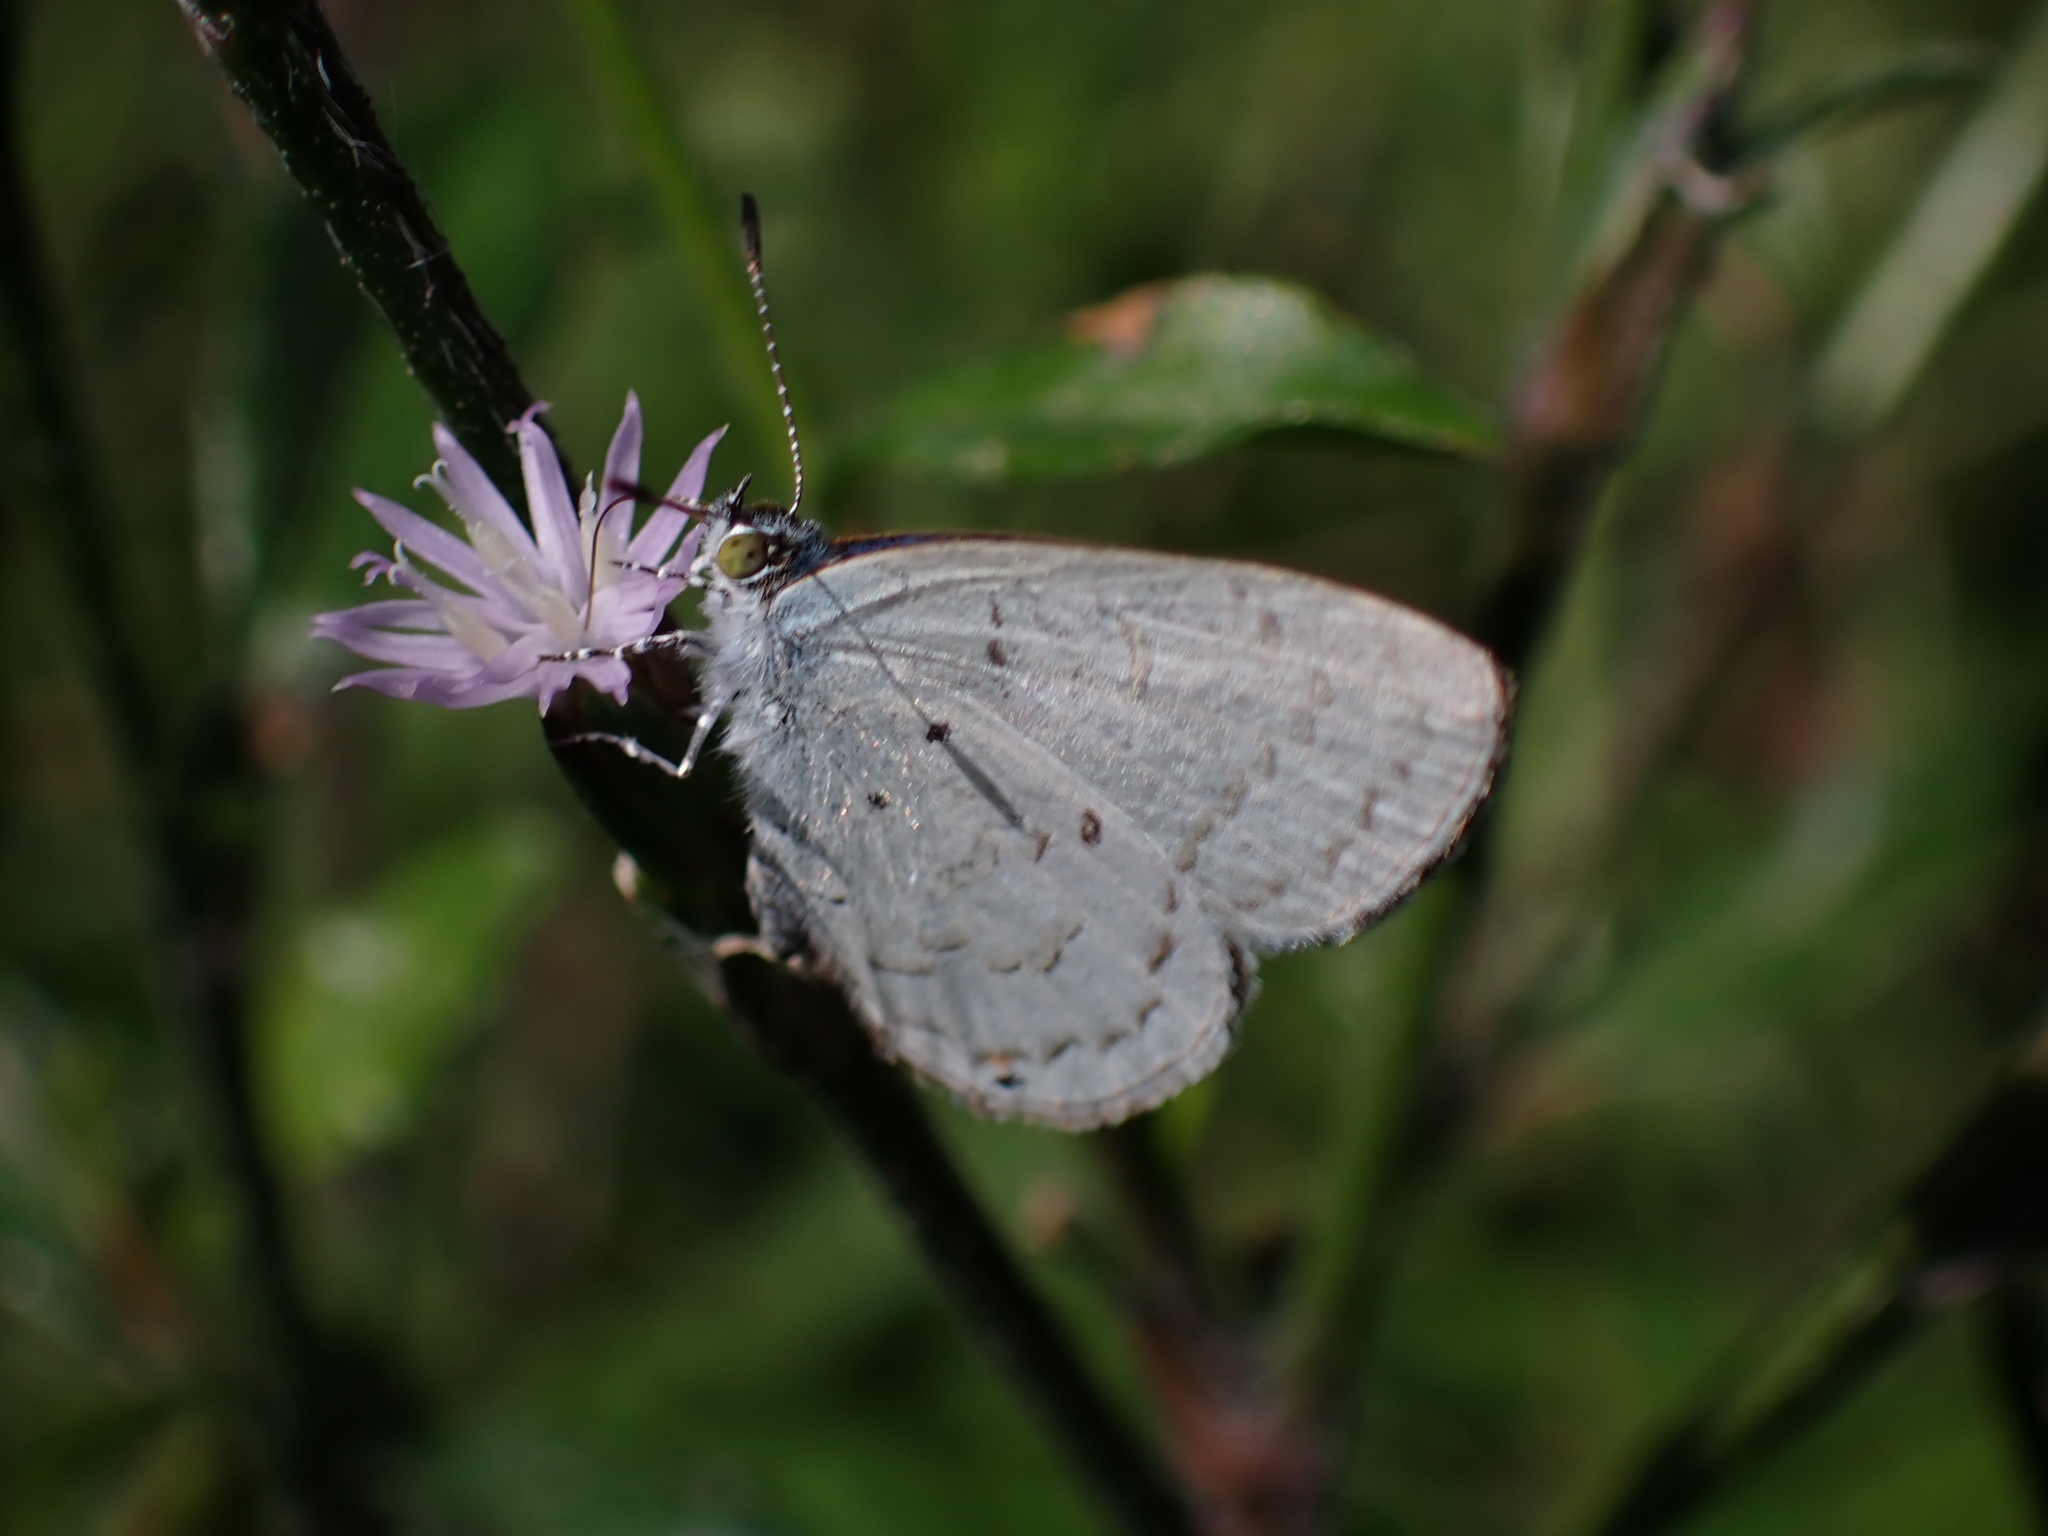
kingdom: Animalia
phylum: Arthropoda
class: Insecta
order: Lepidoptera
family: Lycaenidae
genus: Catopyrops
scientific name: Catopyrops
